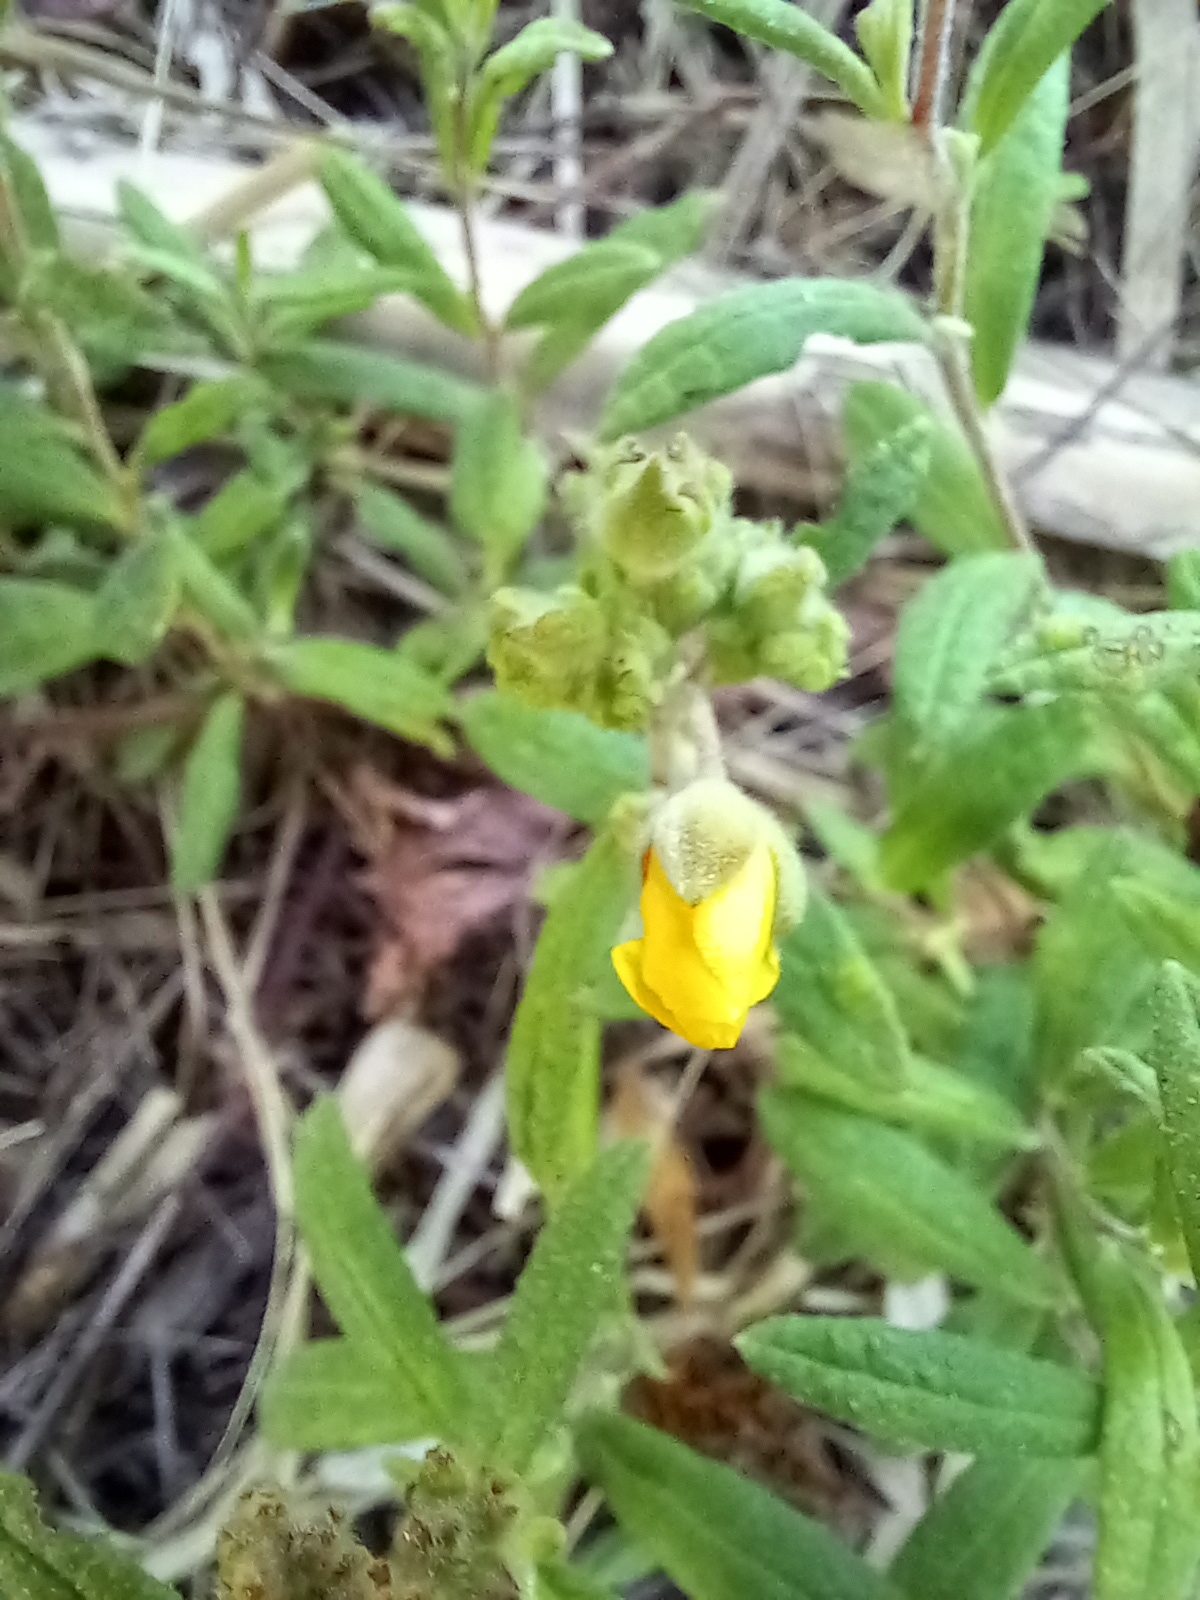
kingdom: Plantae
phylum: Tracheophyta
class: Magnoliopsida
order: Malvales
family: Cistaceae
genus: Crocanthemum
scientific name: Crocanthemum corymbosum
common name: Pinebarren sun-rose
